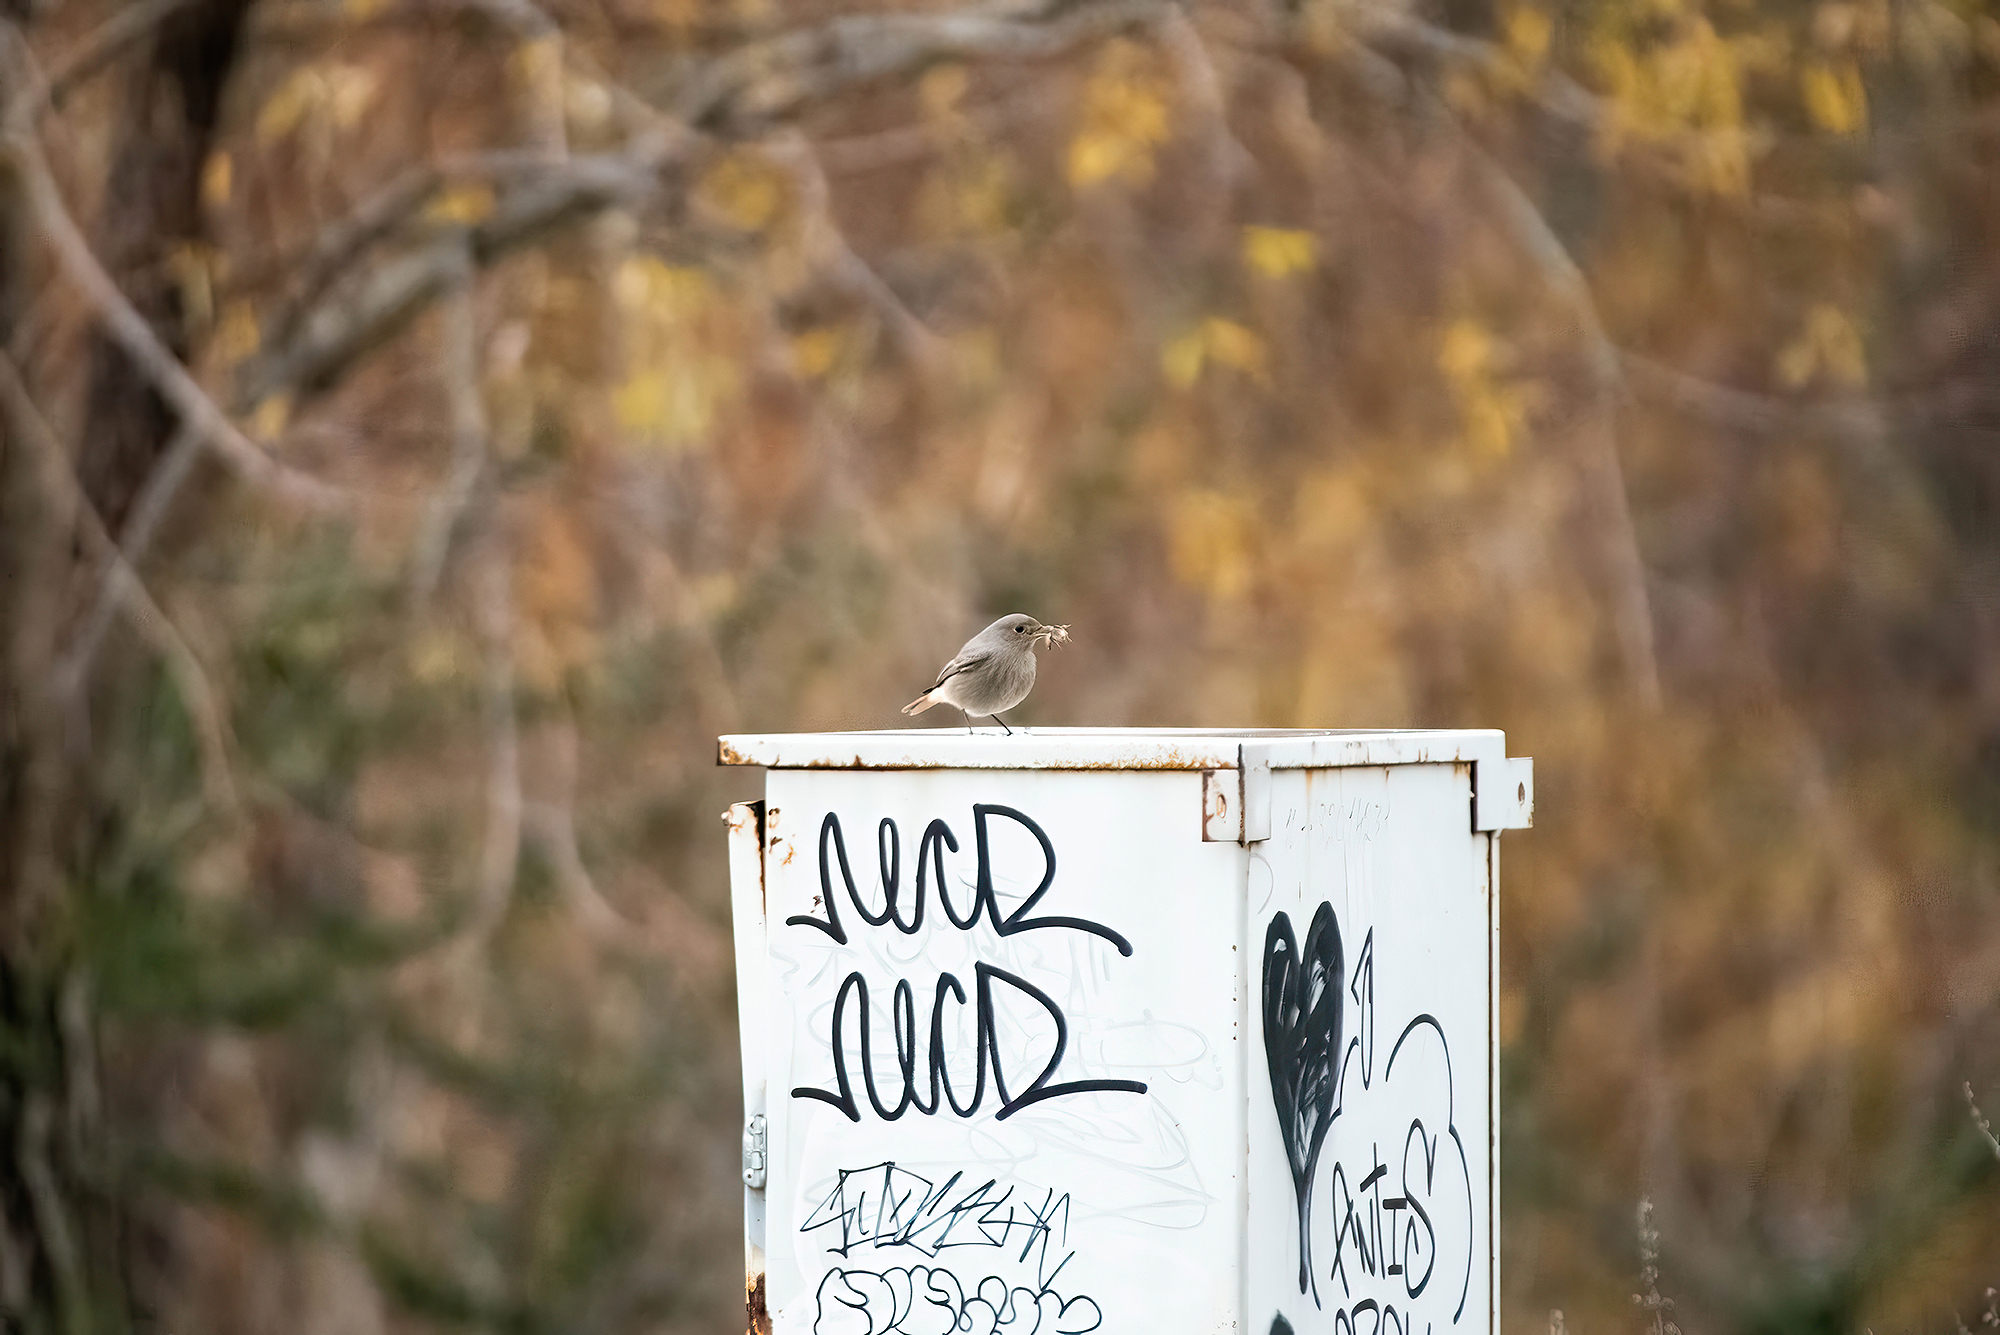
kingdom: Animalia
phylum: Chordata
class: Aves
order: Passeriformes
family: Muscicapidae
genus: Phoenicurus
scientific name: Phoenicurus ochruros
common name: Black redstart
